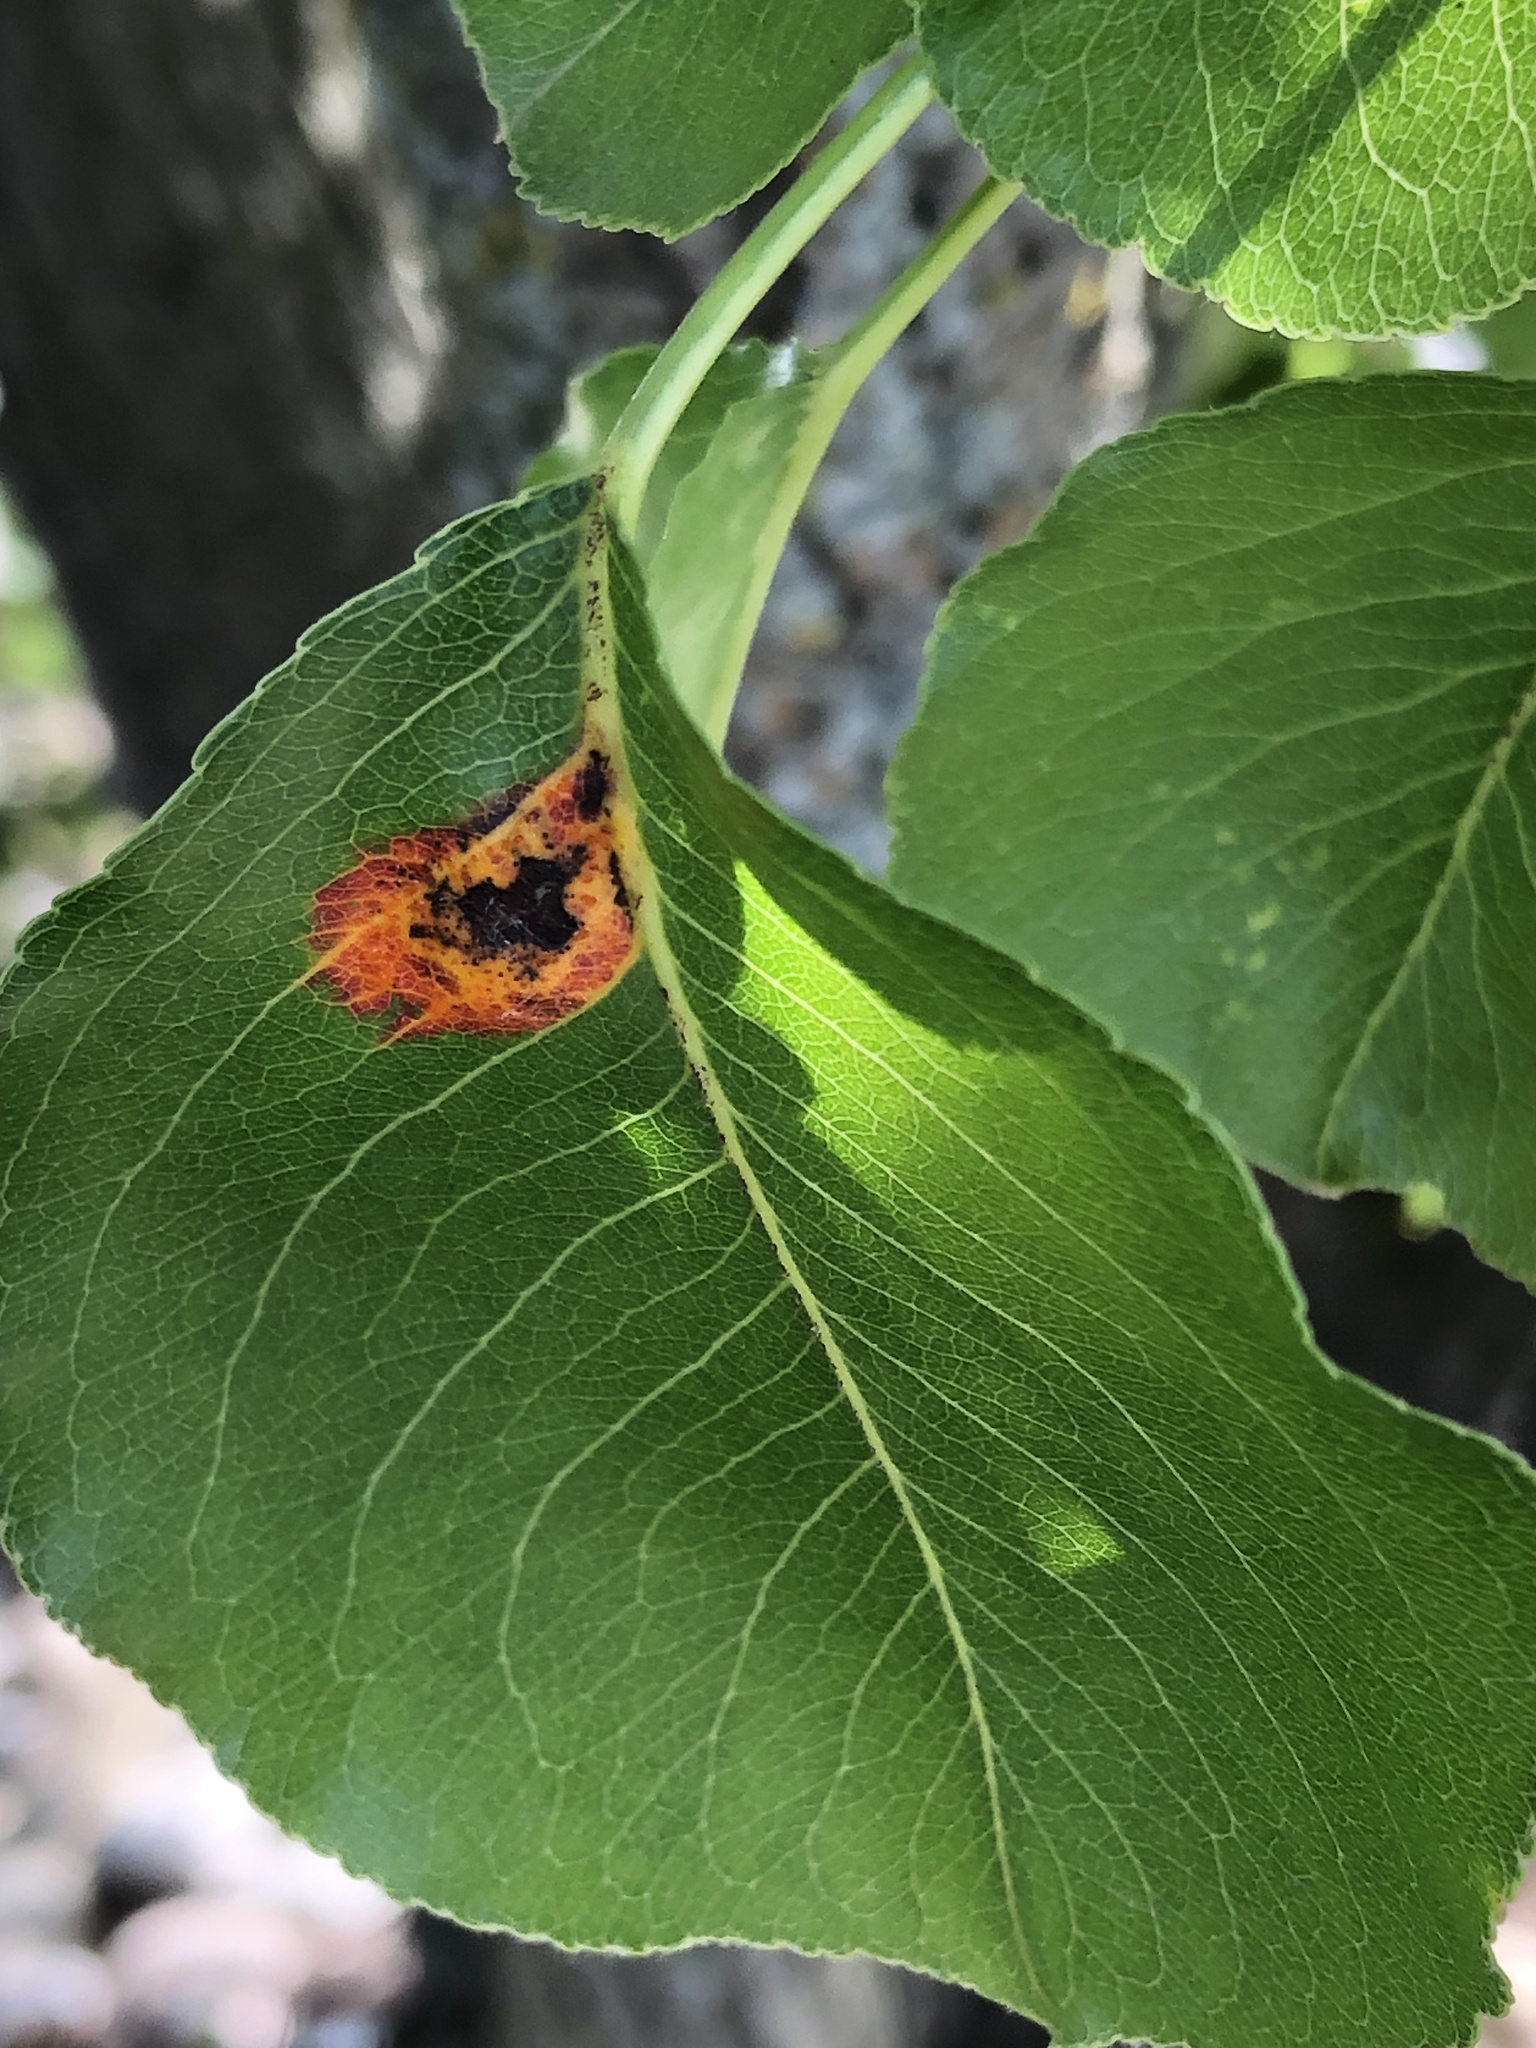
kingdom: Fungi
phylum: Basidiomycota
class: Pucciniomycetes
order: Pucciniales
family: Gymnosporangiaceae
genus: Gymnosporangium
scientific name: Gymnosporangium sabinae
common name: Pear trellis rust fungus
